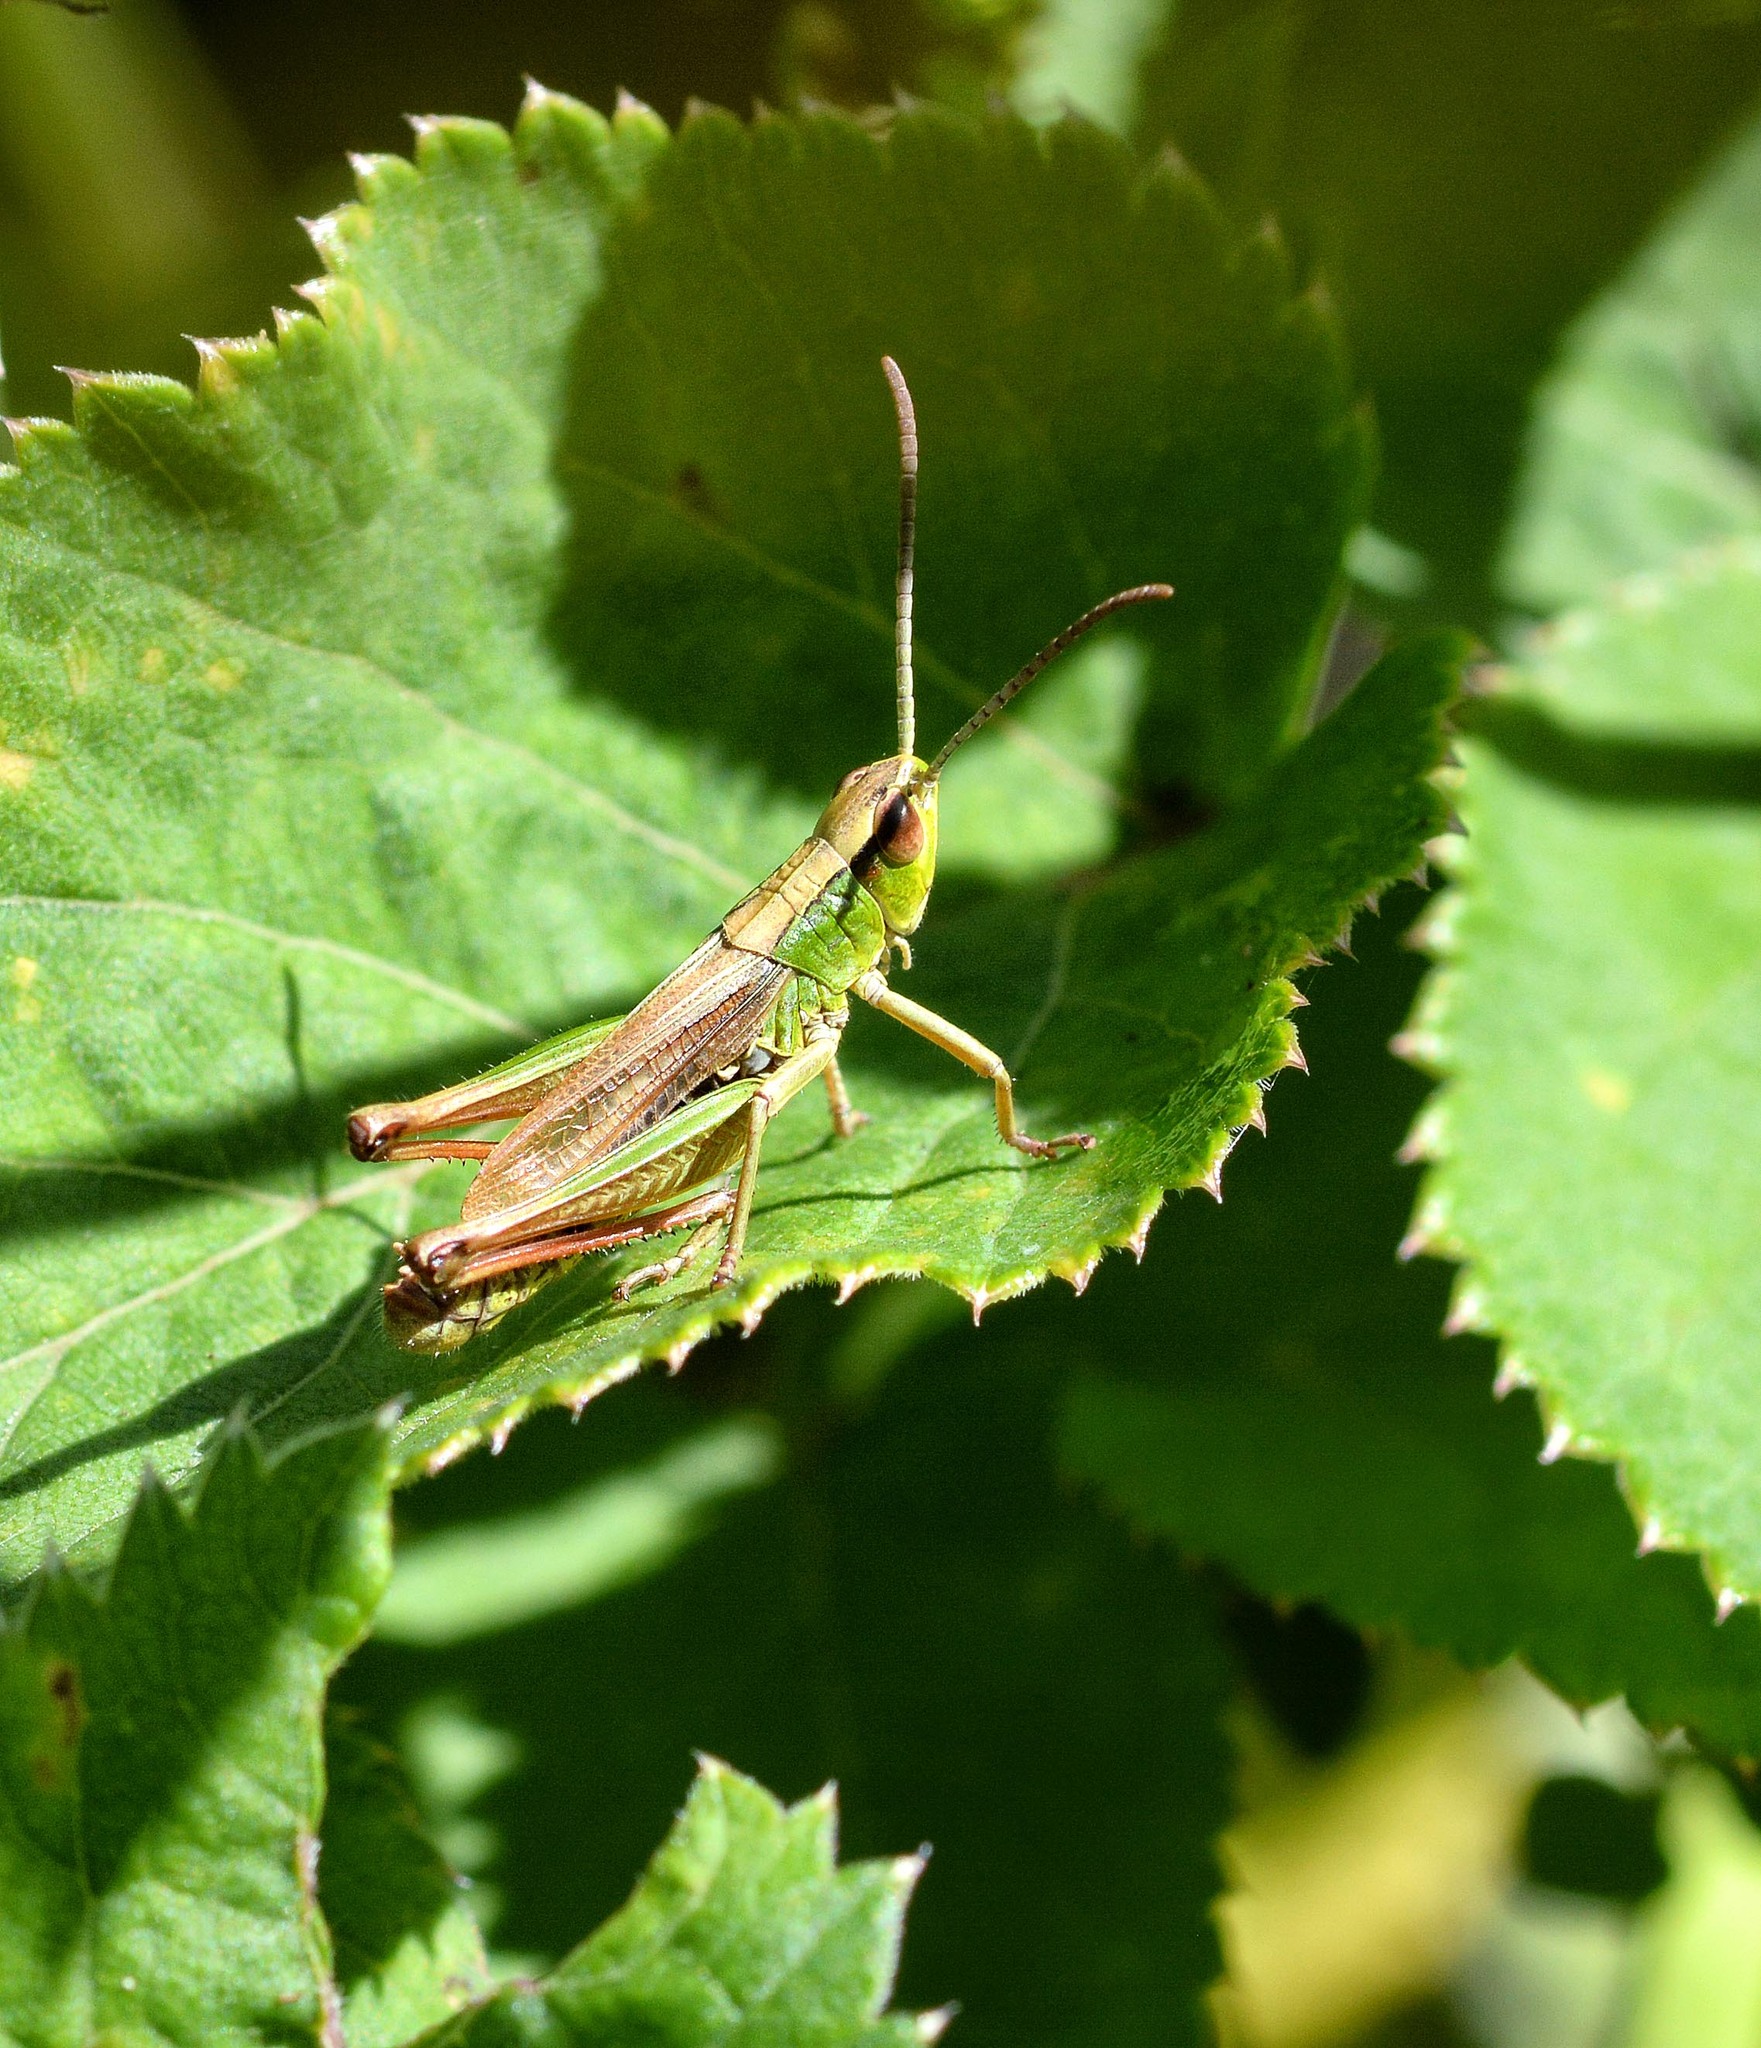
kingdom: Animalia
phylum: Arthropoda
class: Insecta
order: Orthoptera
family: Acrididae
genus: Pseudochorthippus
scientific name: Pseudochorthippus parallelus
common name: Meadow grasshopper
